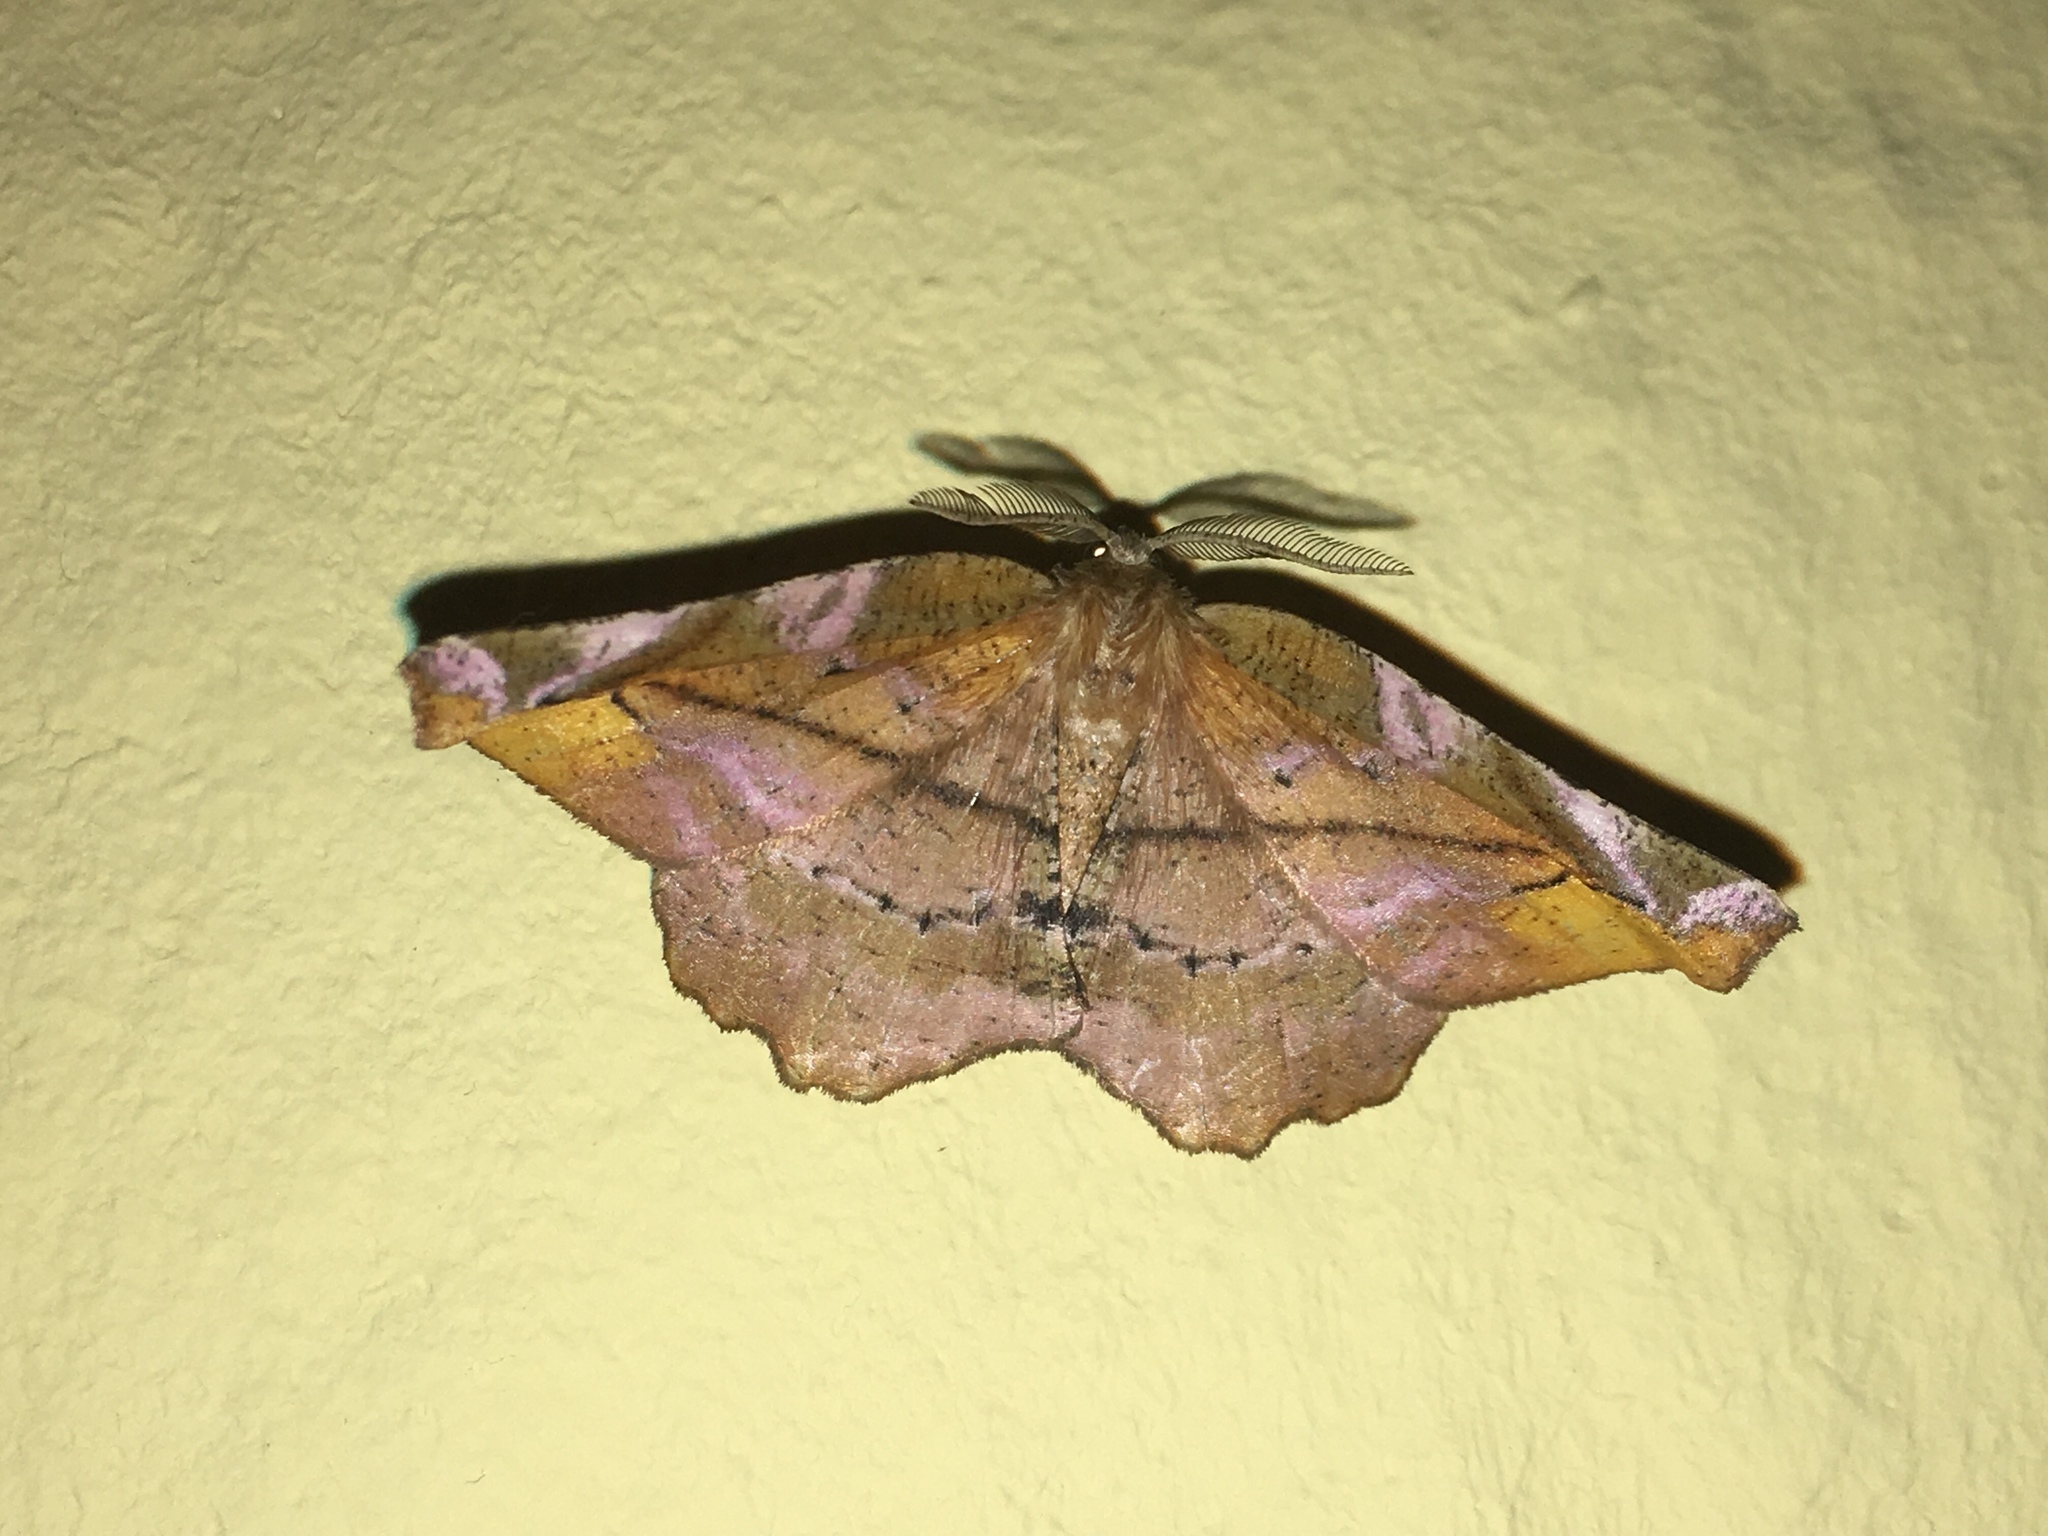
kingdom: Animalia
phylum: Arthropoda
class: Insecta
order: Lepidoptera
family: Geometridae
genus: Apeira
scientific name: Apeira syringaria
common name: Lilac beauty
